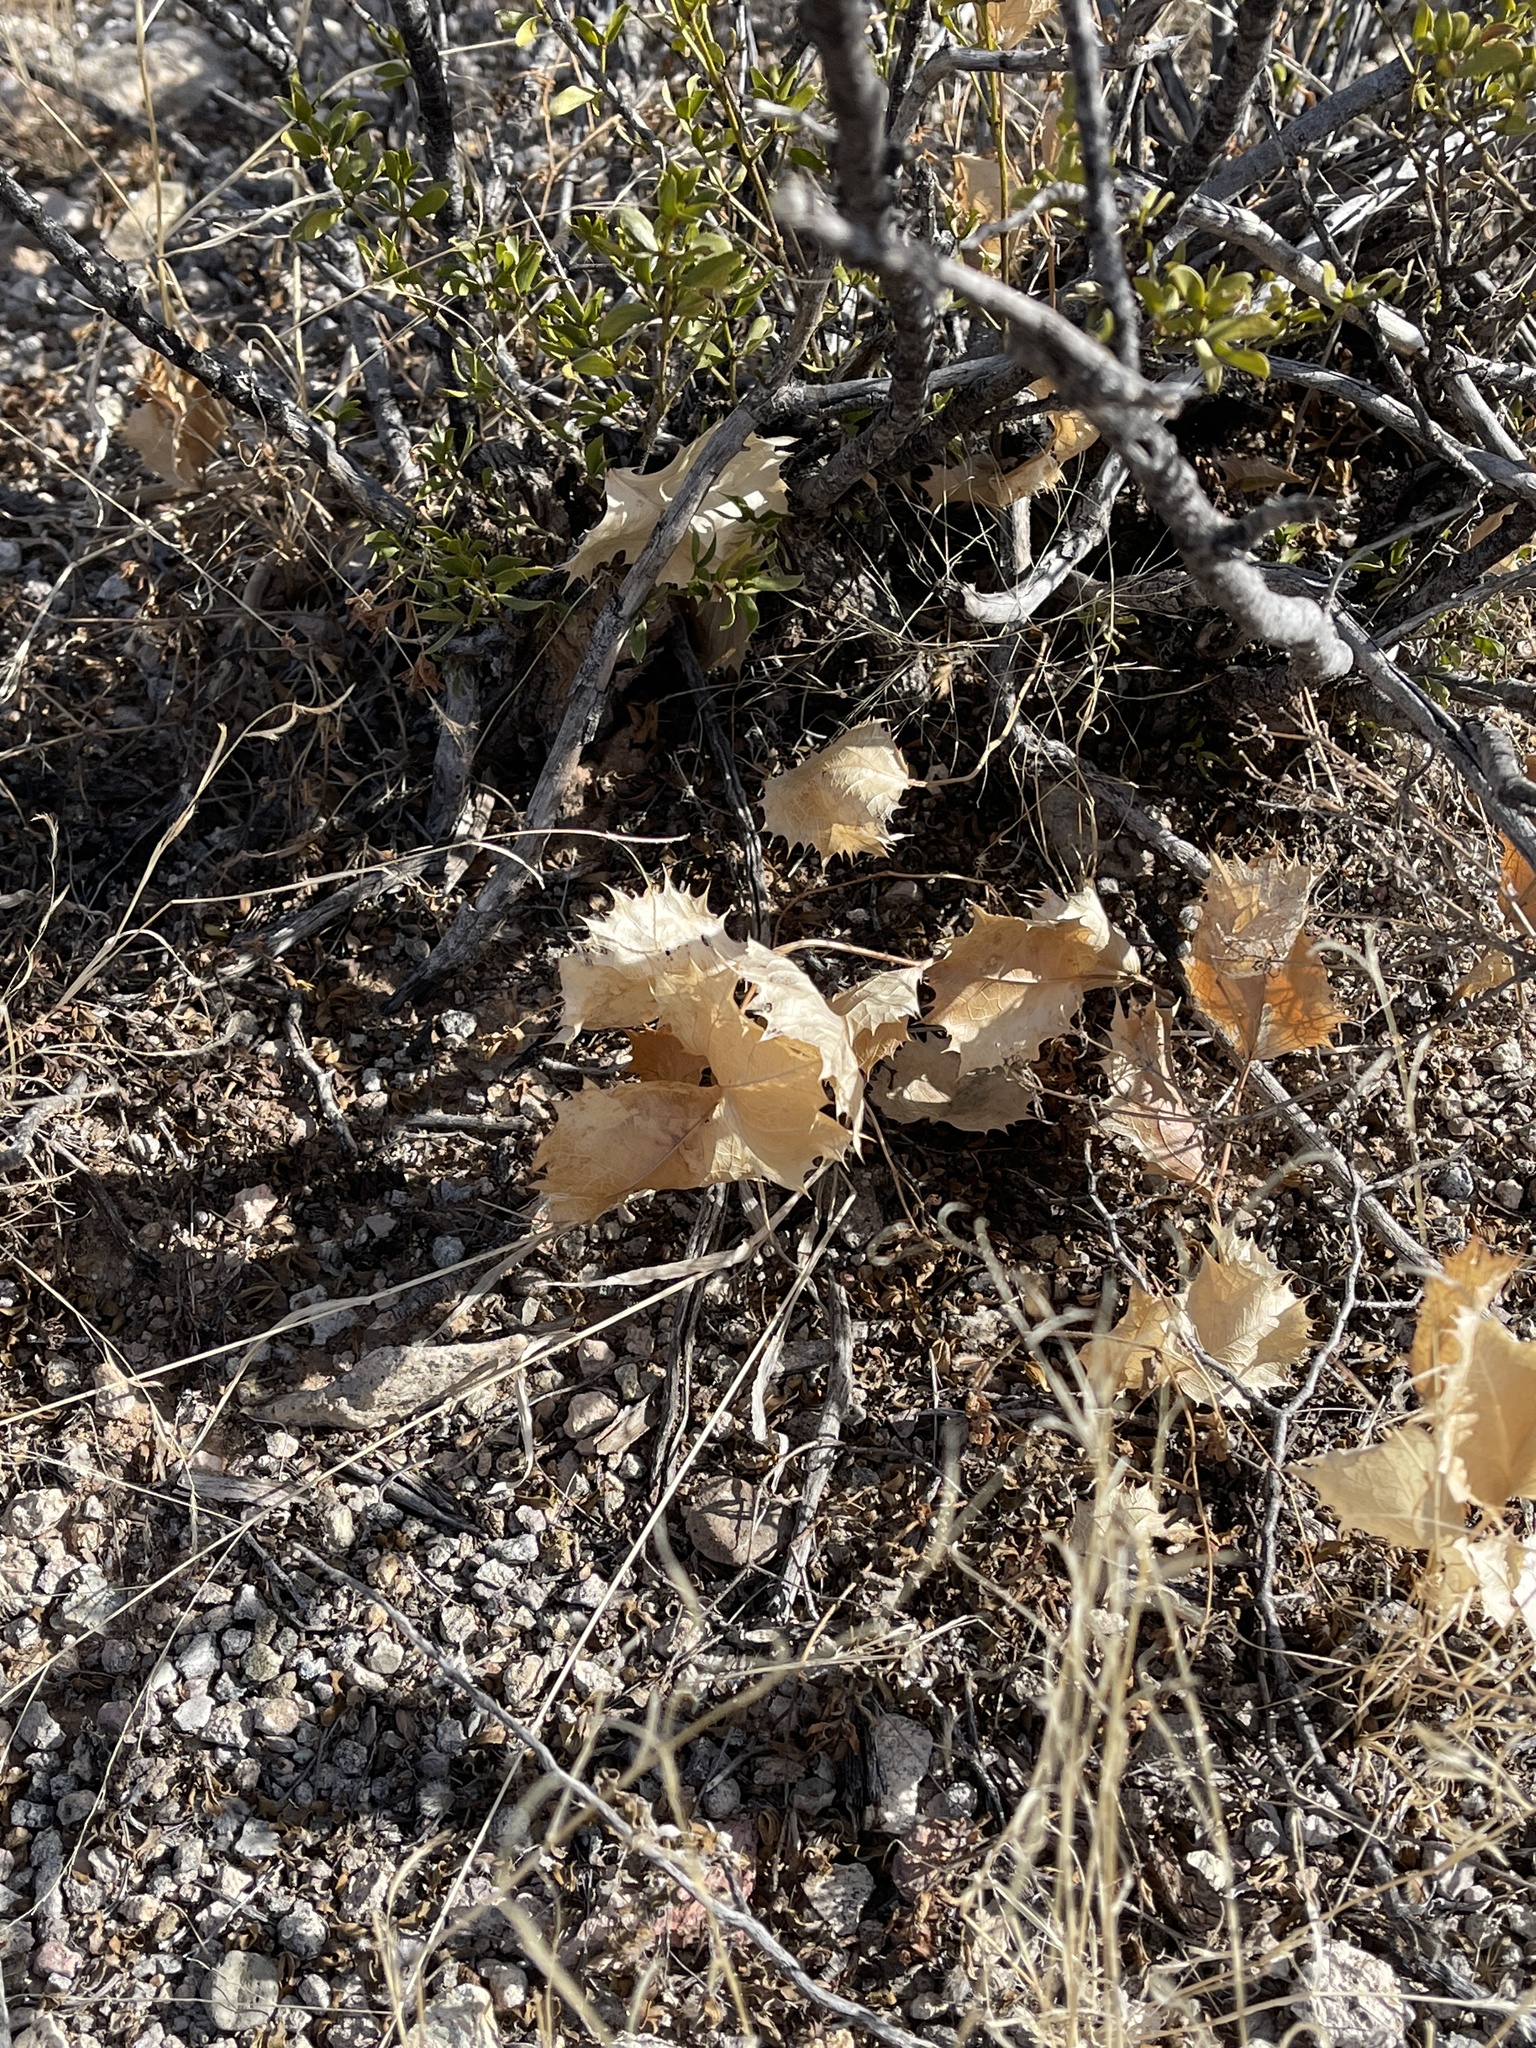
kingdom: Plantae
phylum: Tracheophyta
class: Magnoliopsida
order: Asterales
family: Asteraceae
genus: Acourtia
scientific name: Acourtia nana
